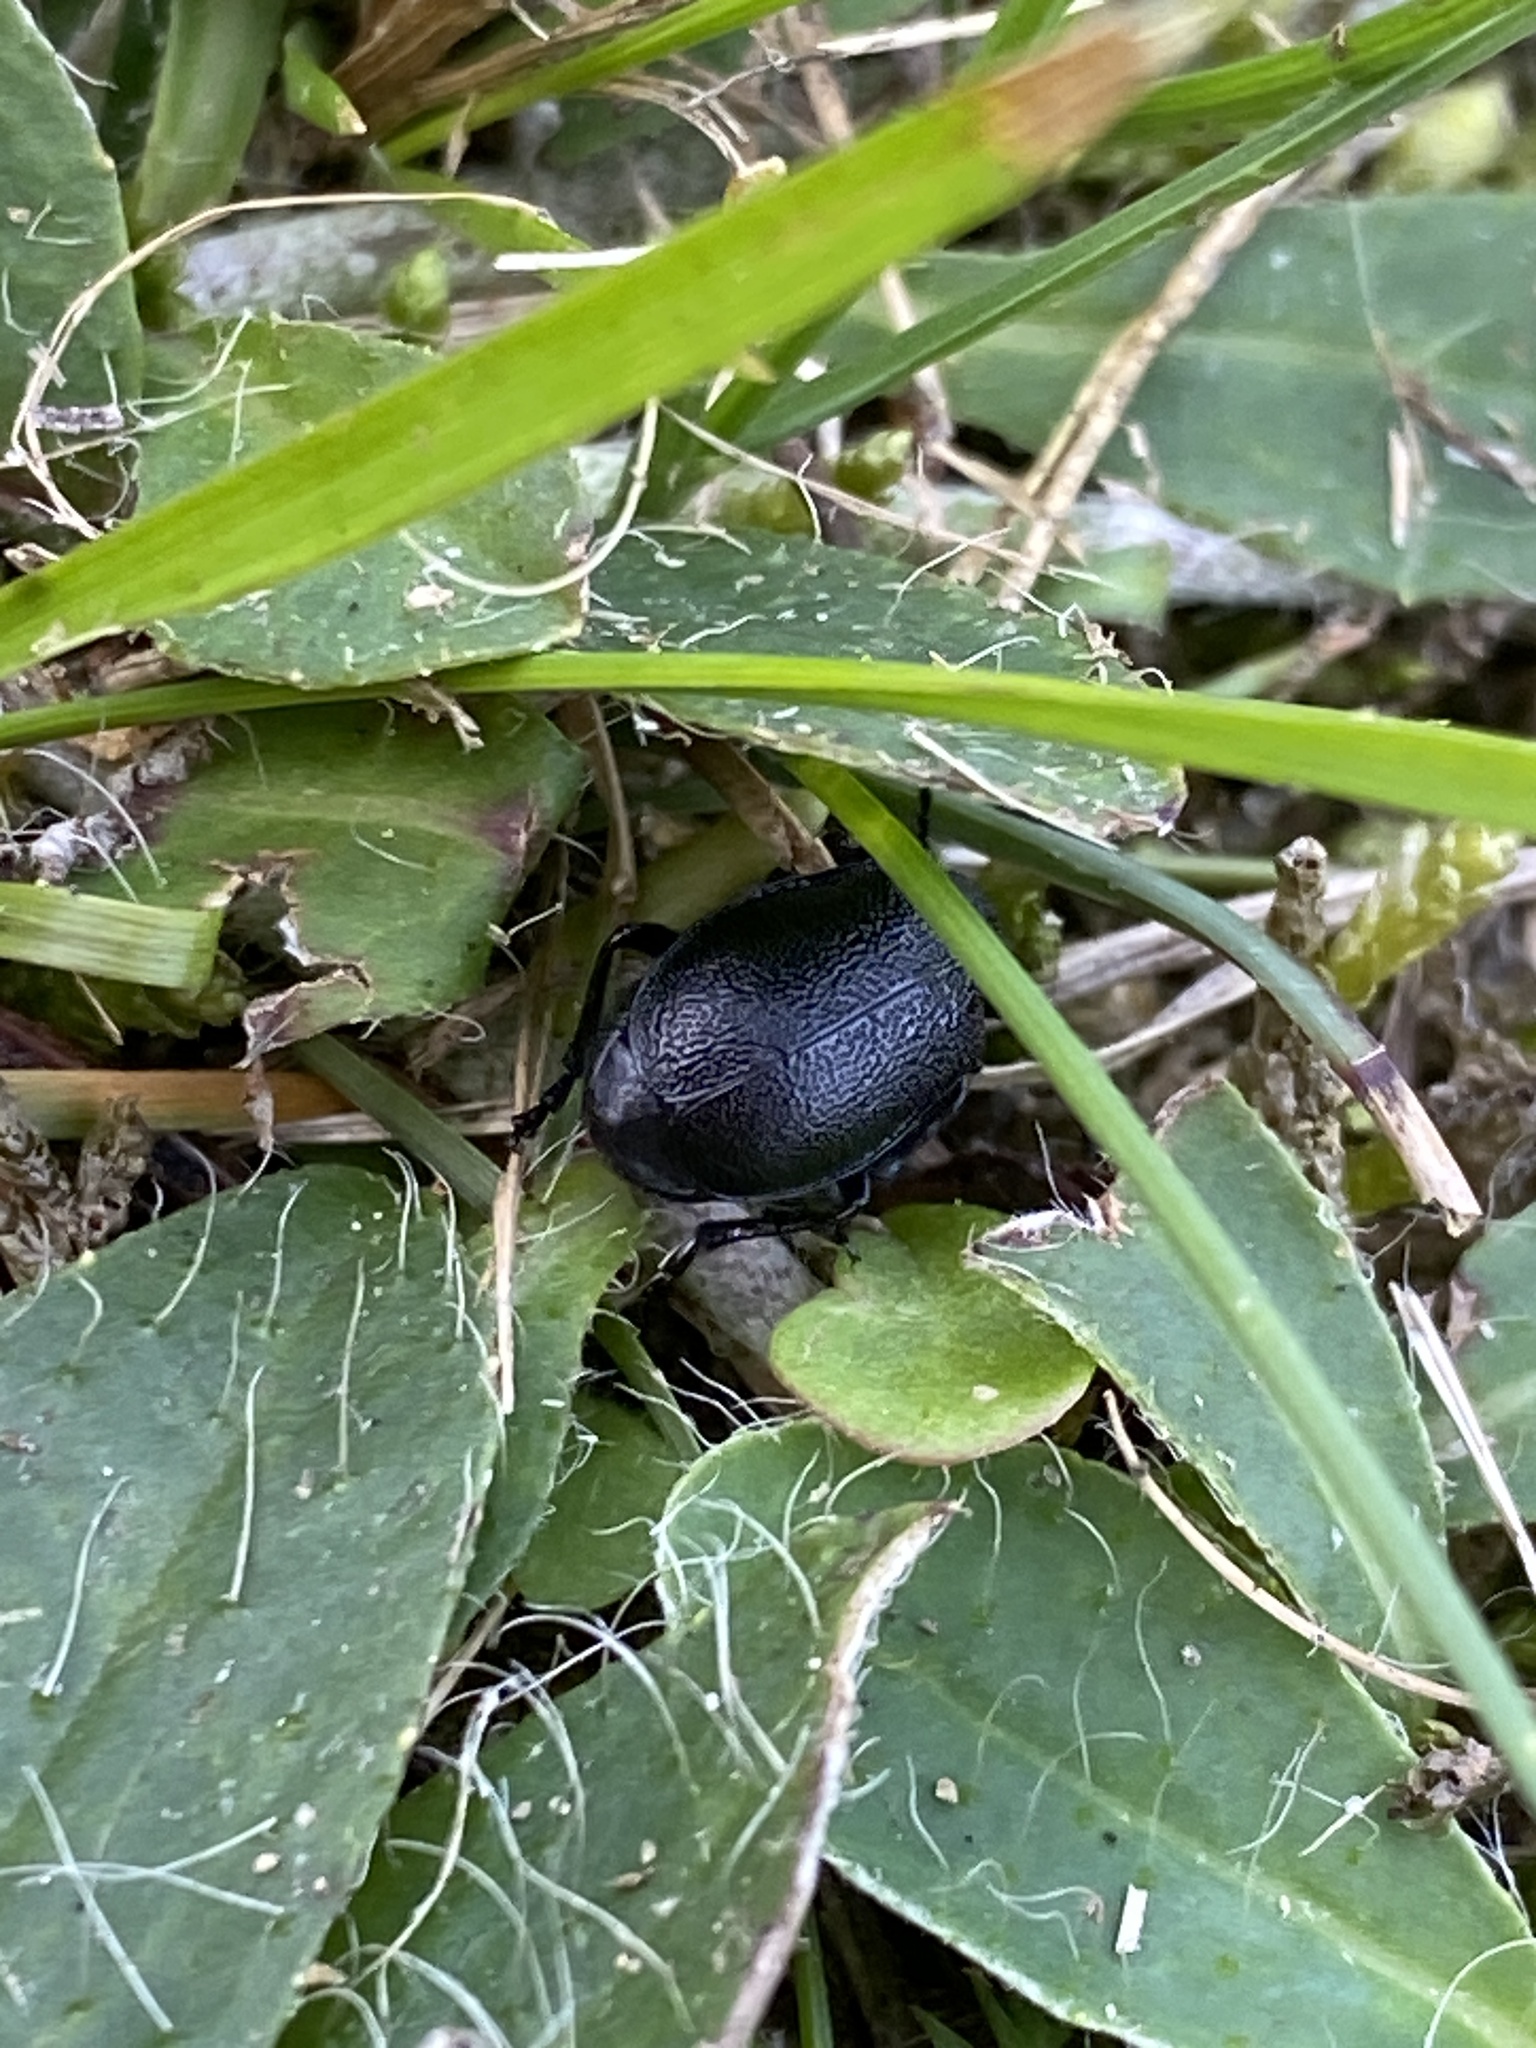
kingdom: Animalia
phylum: Arthropoda
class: Insecta
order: Coleoptera
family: Chrysomelidae
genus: Galeruca
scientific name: Galeruca tanaceti
